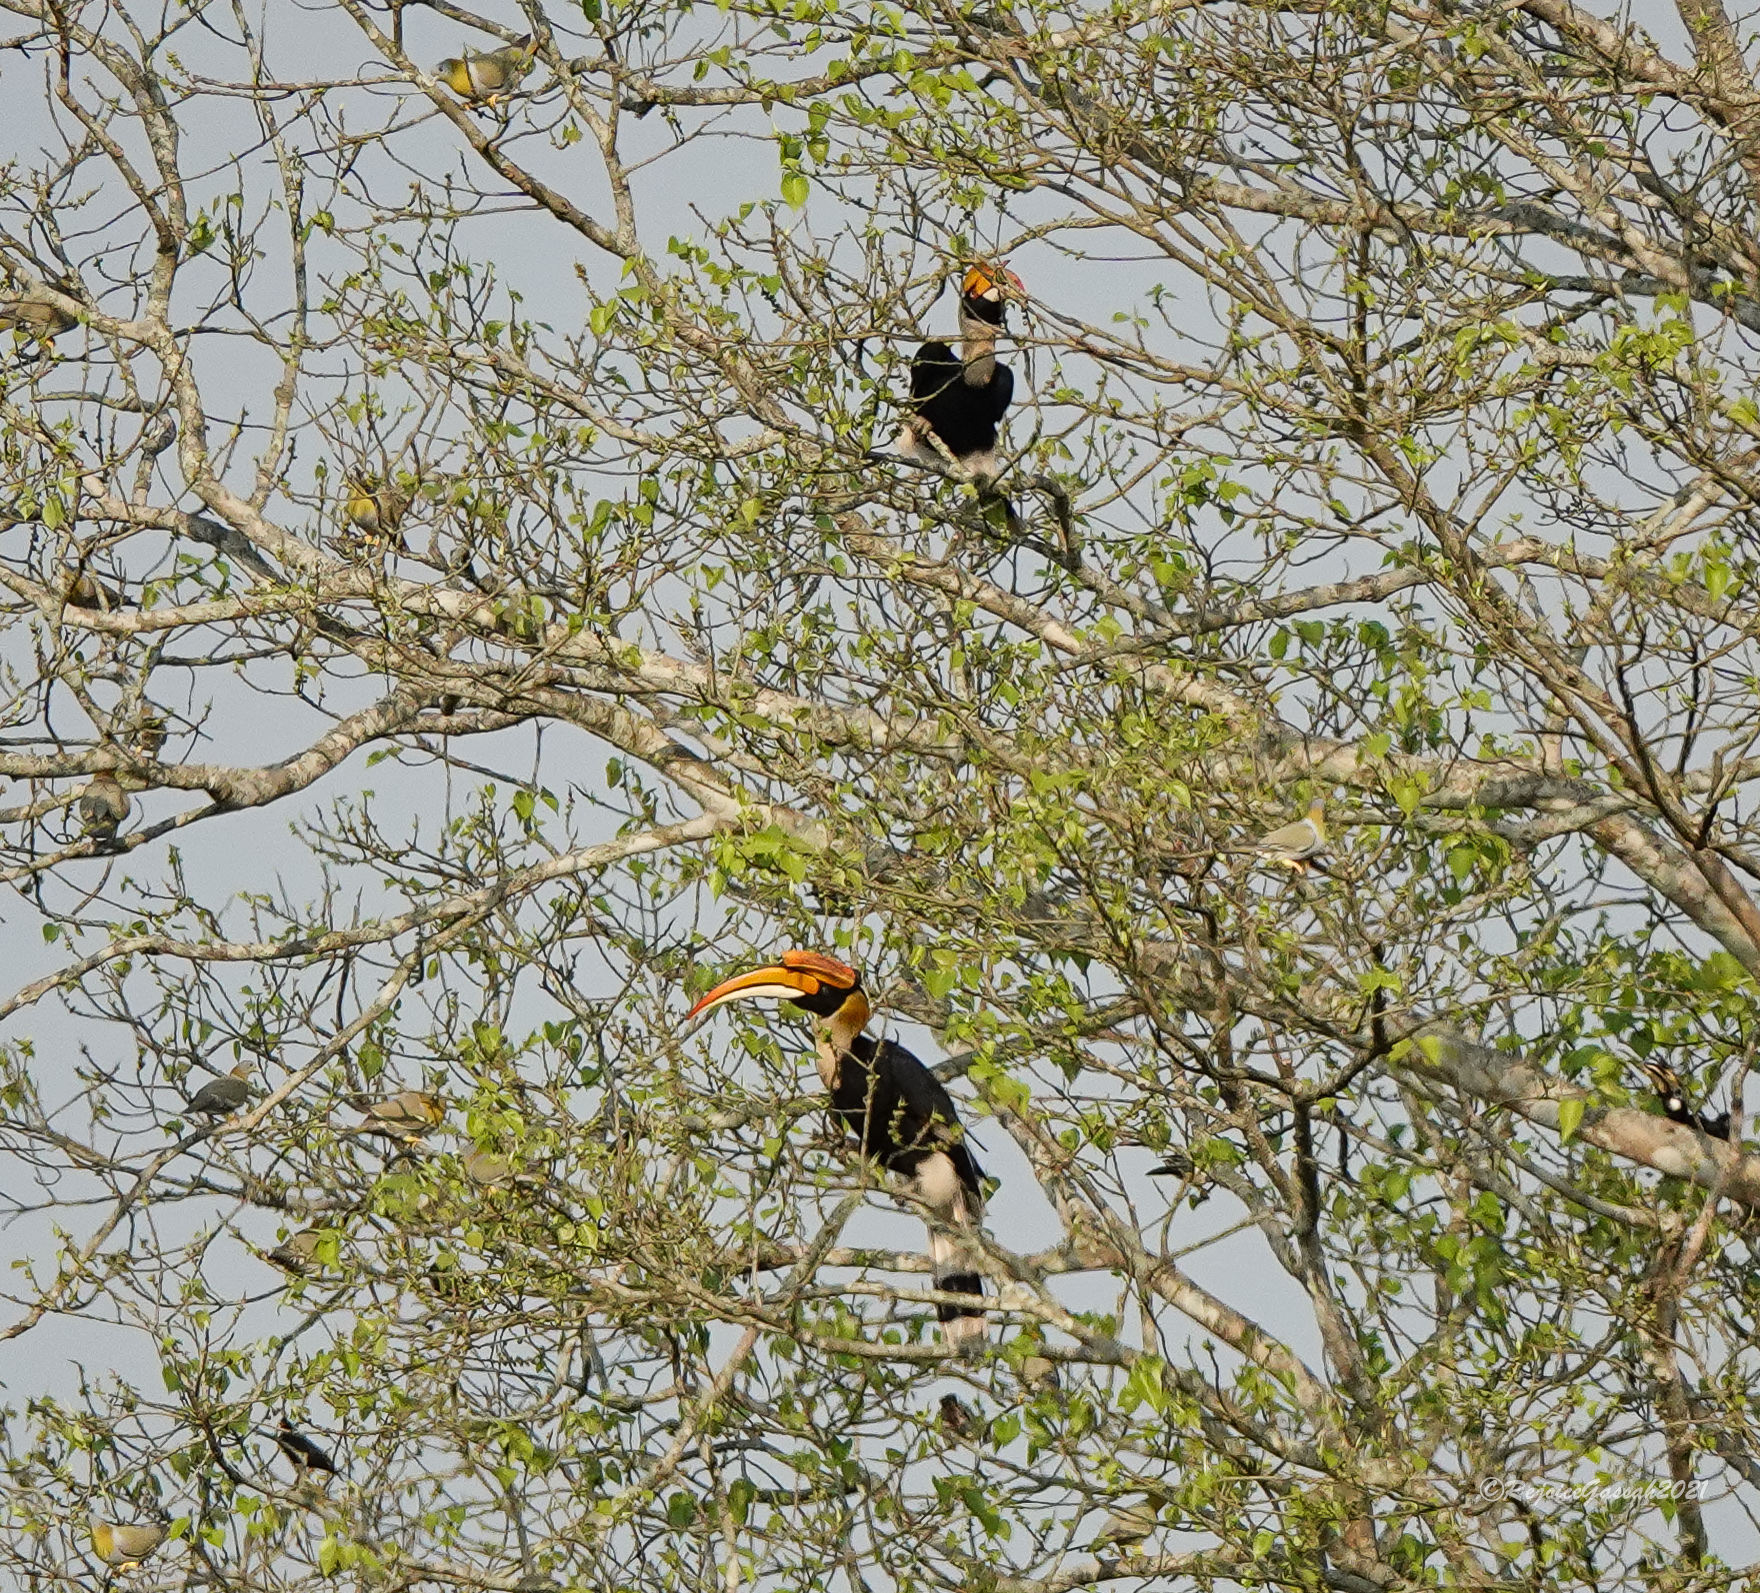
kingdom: Animalia
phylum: Chordata
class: Aves
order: Bucerotiformes
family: Bucerotidae
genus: Buceros
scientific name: Buceros bicornis
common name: Great hornbill
